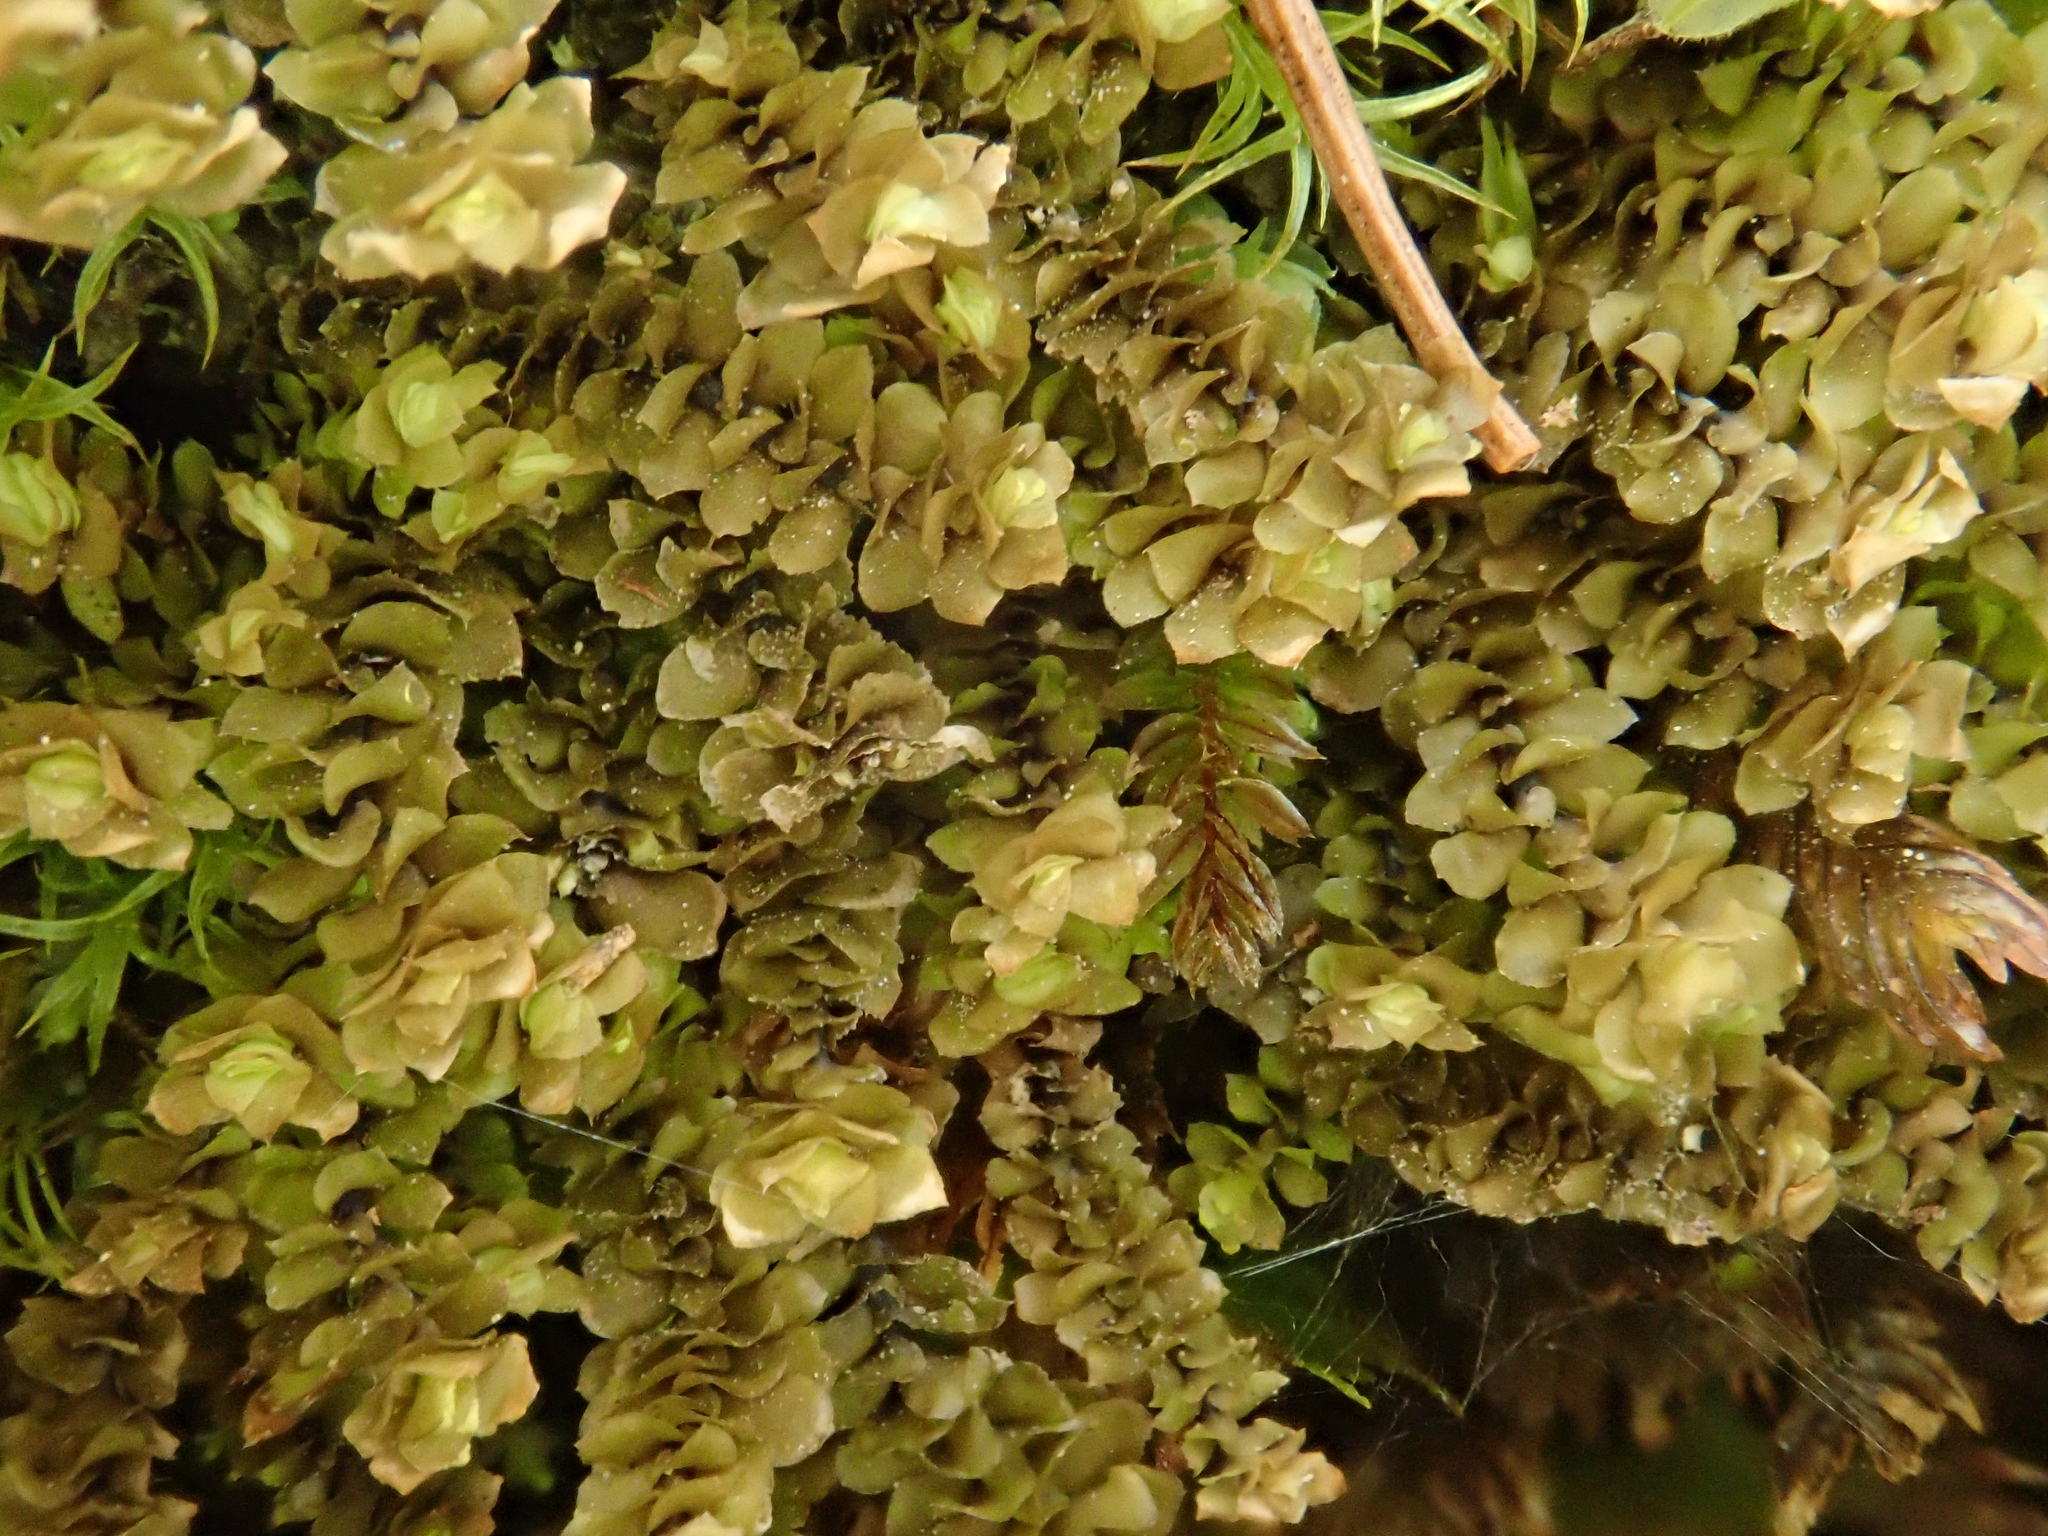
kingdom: Plantae
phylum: Marchantiophyta
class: Jungermanniopsida
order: Jungermanniales
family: Scapaniaceae
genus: Scapania
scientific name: Scapania aspera
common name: Rough earwort
